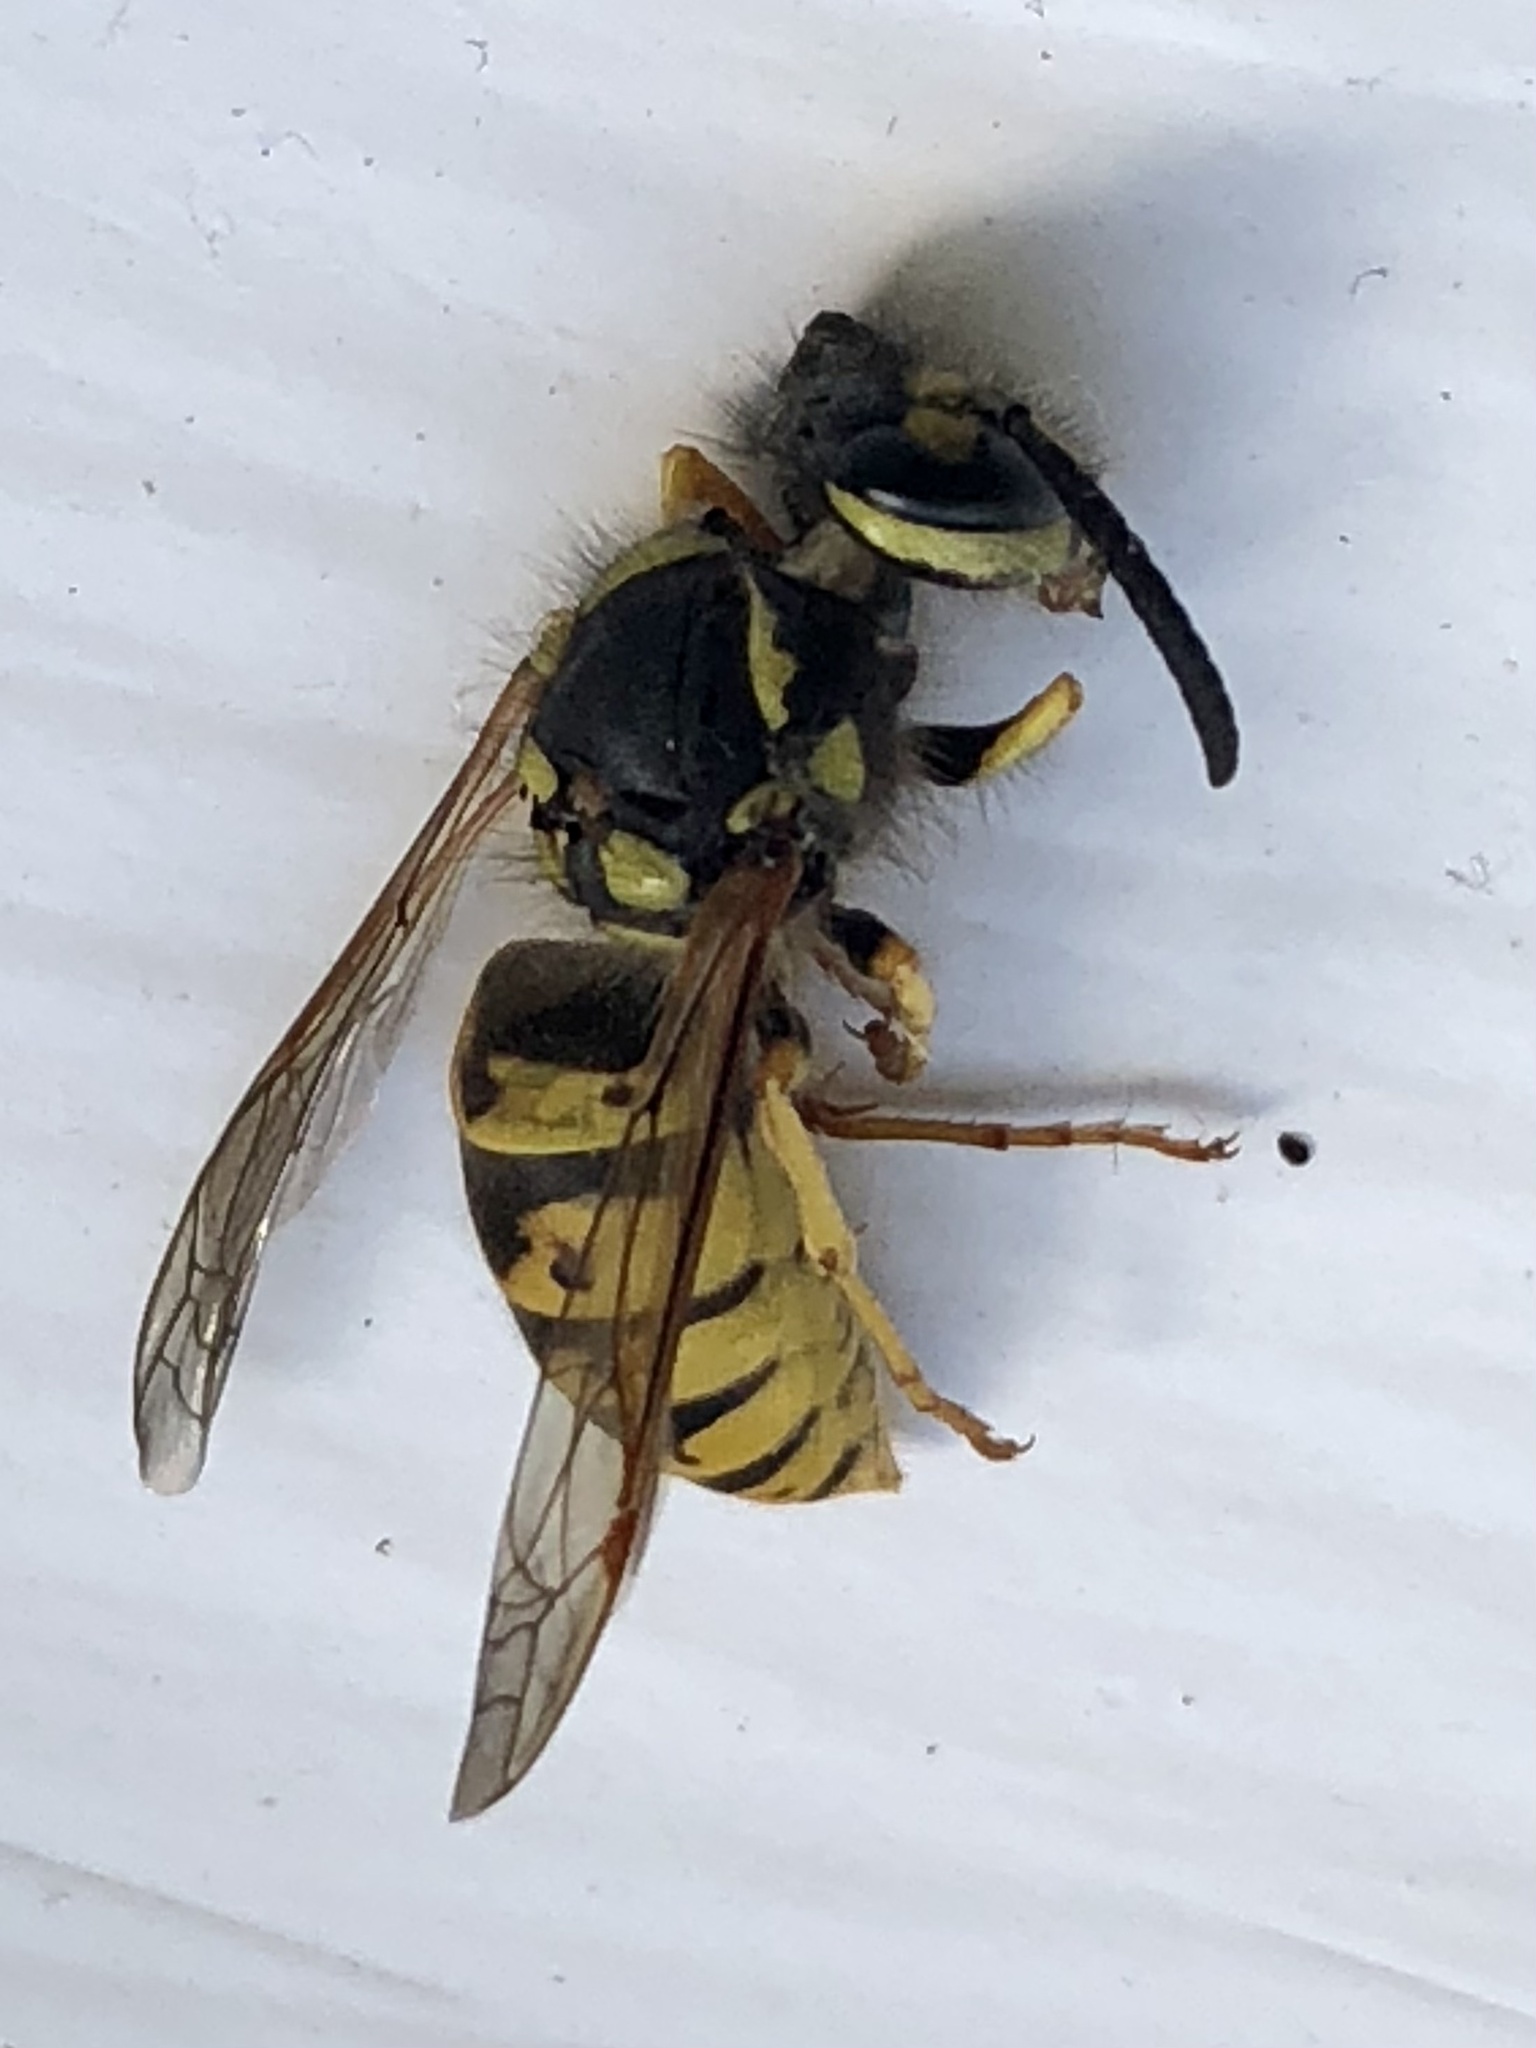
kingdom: Animalia
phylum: Arthropoda
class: Insecta
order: Hymenoptera
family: Vespidae
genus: Vespula
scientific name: Vespula germanica
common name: German wasp
